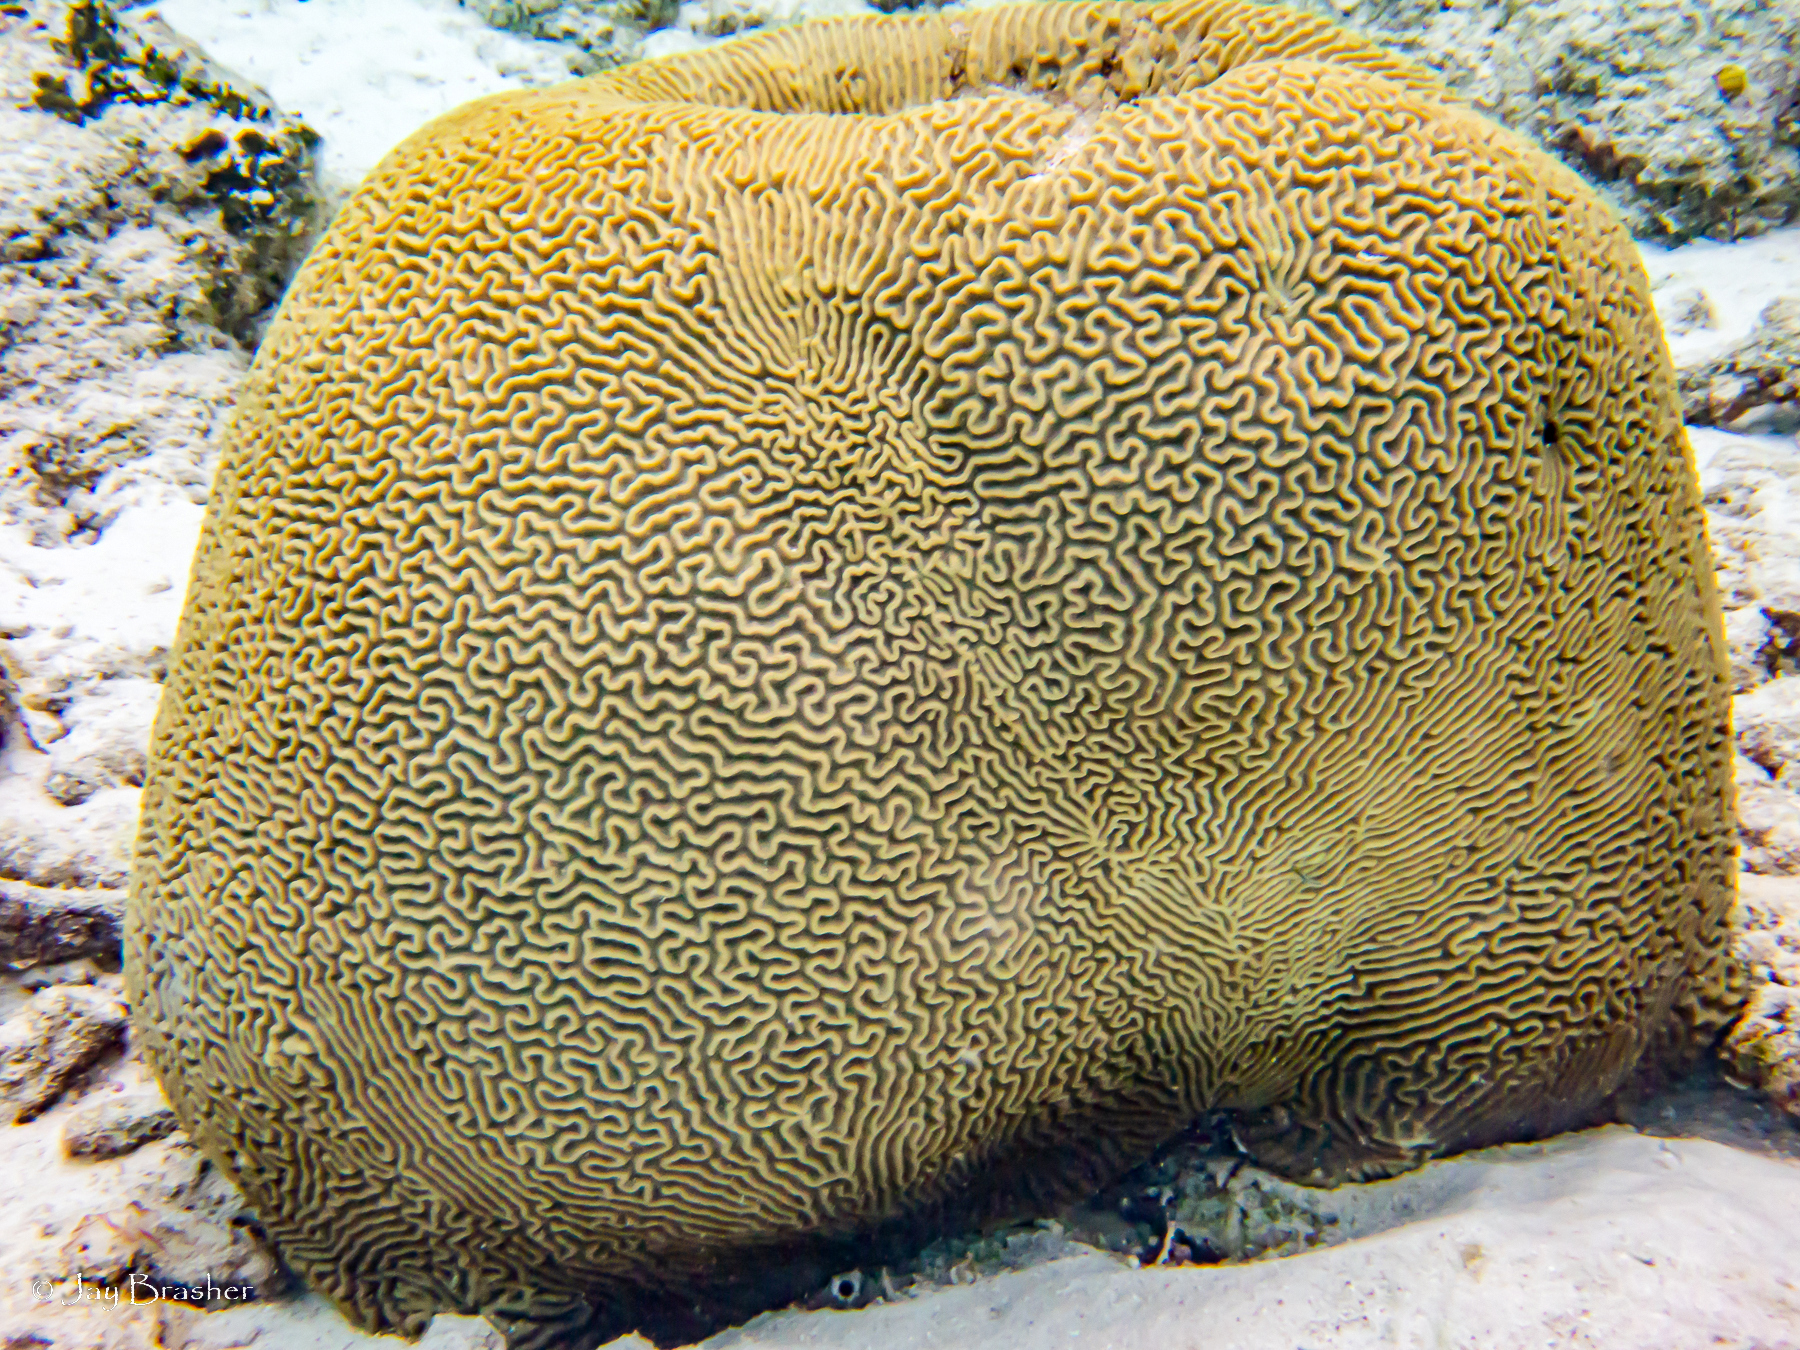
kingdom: Animalia
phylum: Cnidaria
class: Anthozoa
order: Scleractinia
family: Faviidae
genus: Pseudodiploria
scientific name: Pseudodiploria strigosa
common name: Symmetrical brain coral
